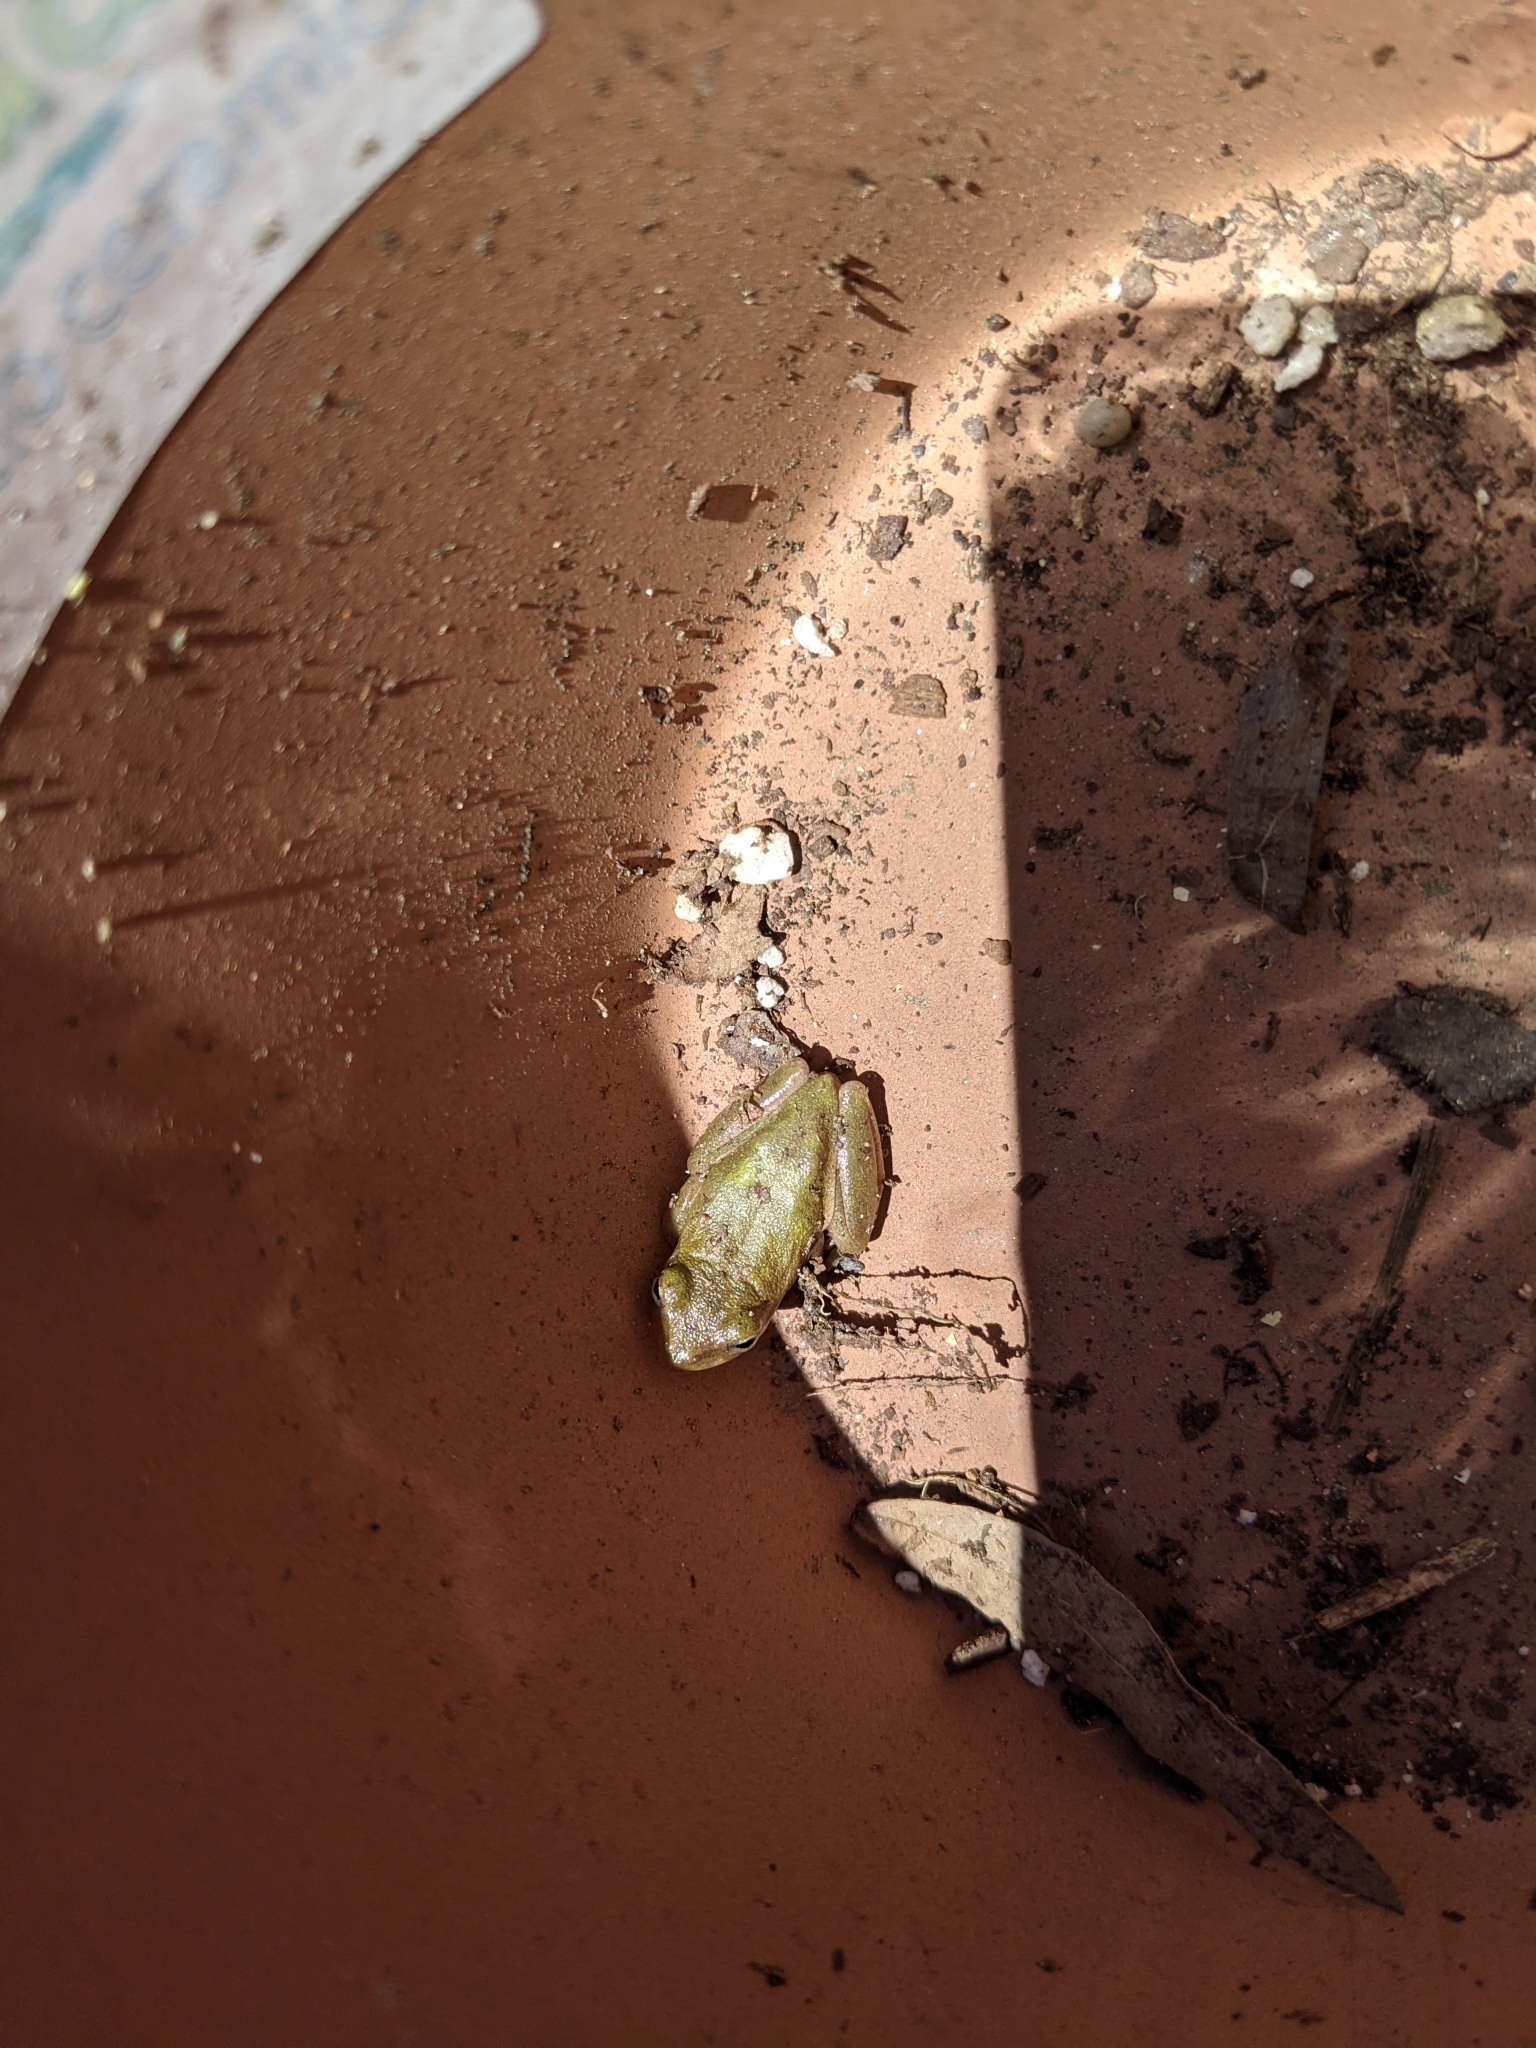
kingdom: Animalia
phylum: Chordata
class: Amphibia
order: Anura
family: Hylidae
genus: Dryophytes
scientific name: Dryophytes squirellus
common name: Squirrel treefrog
